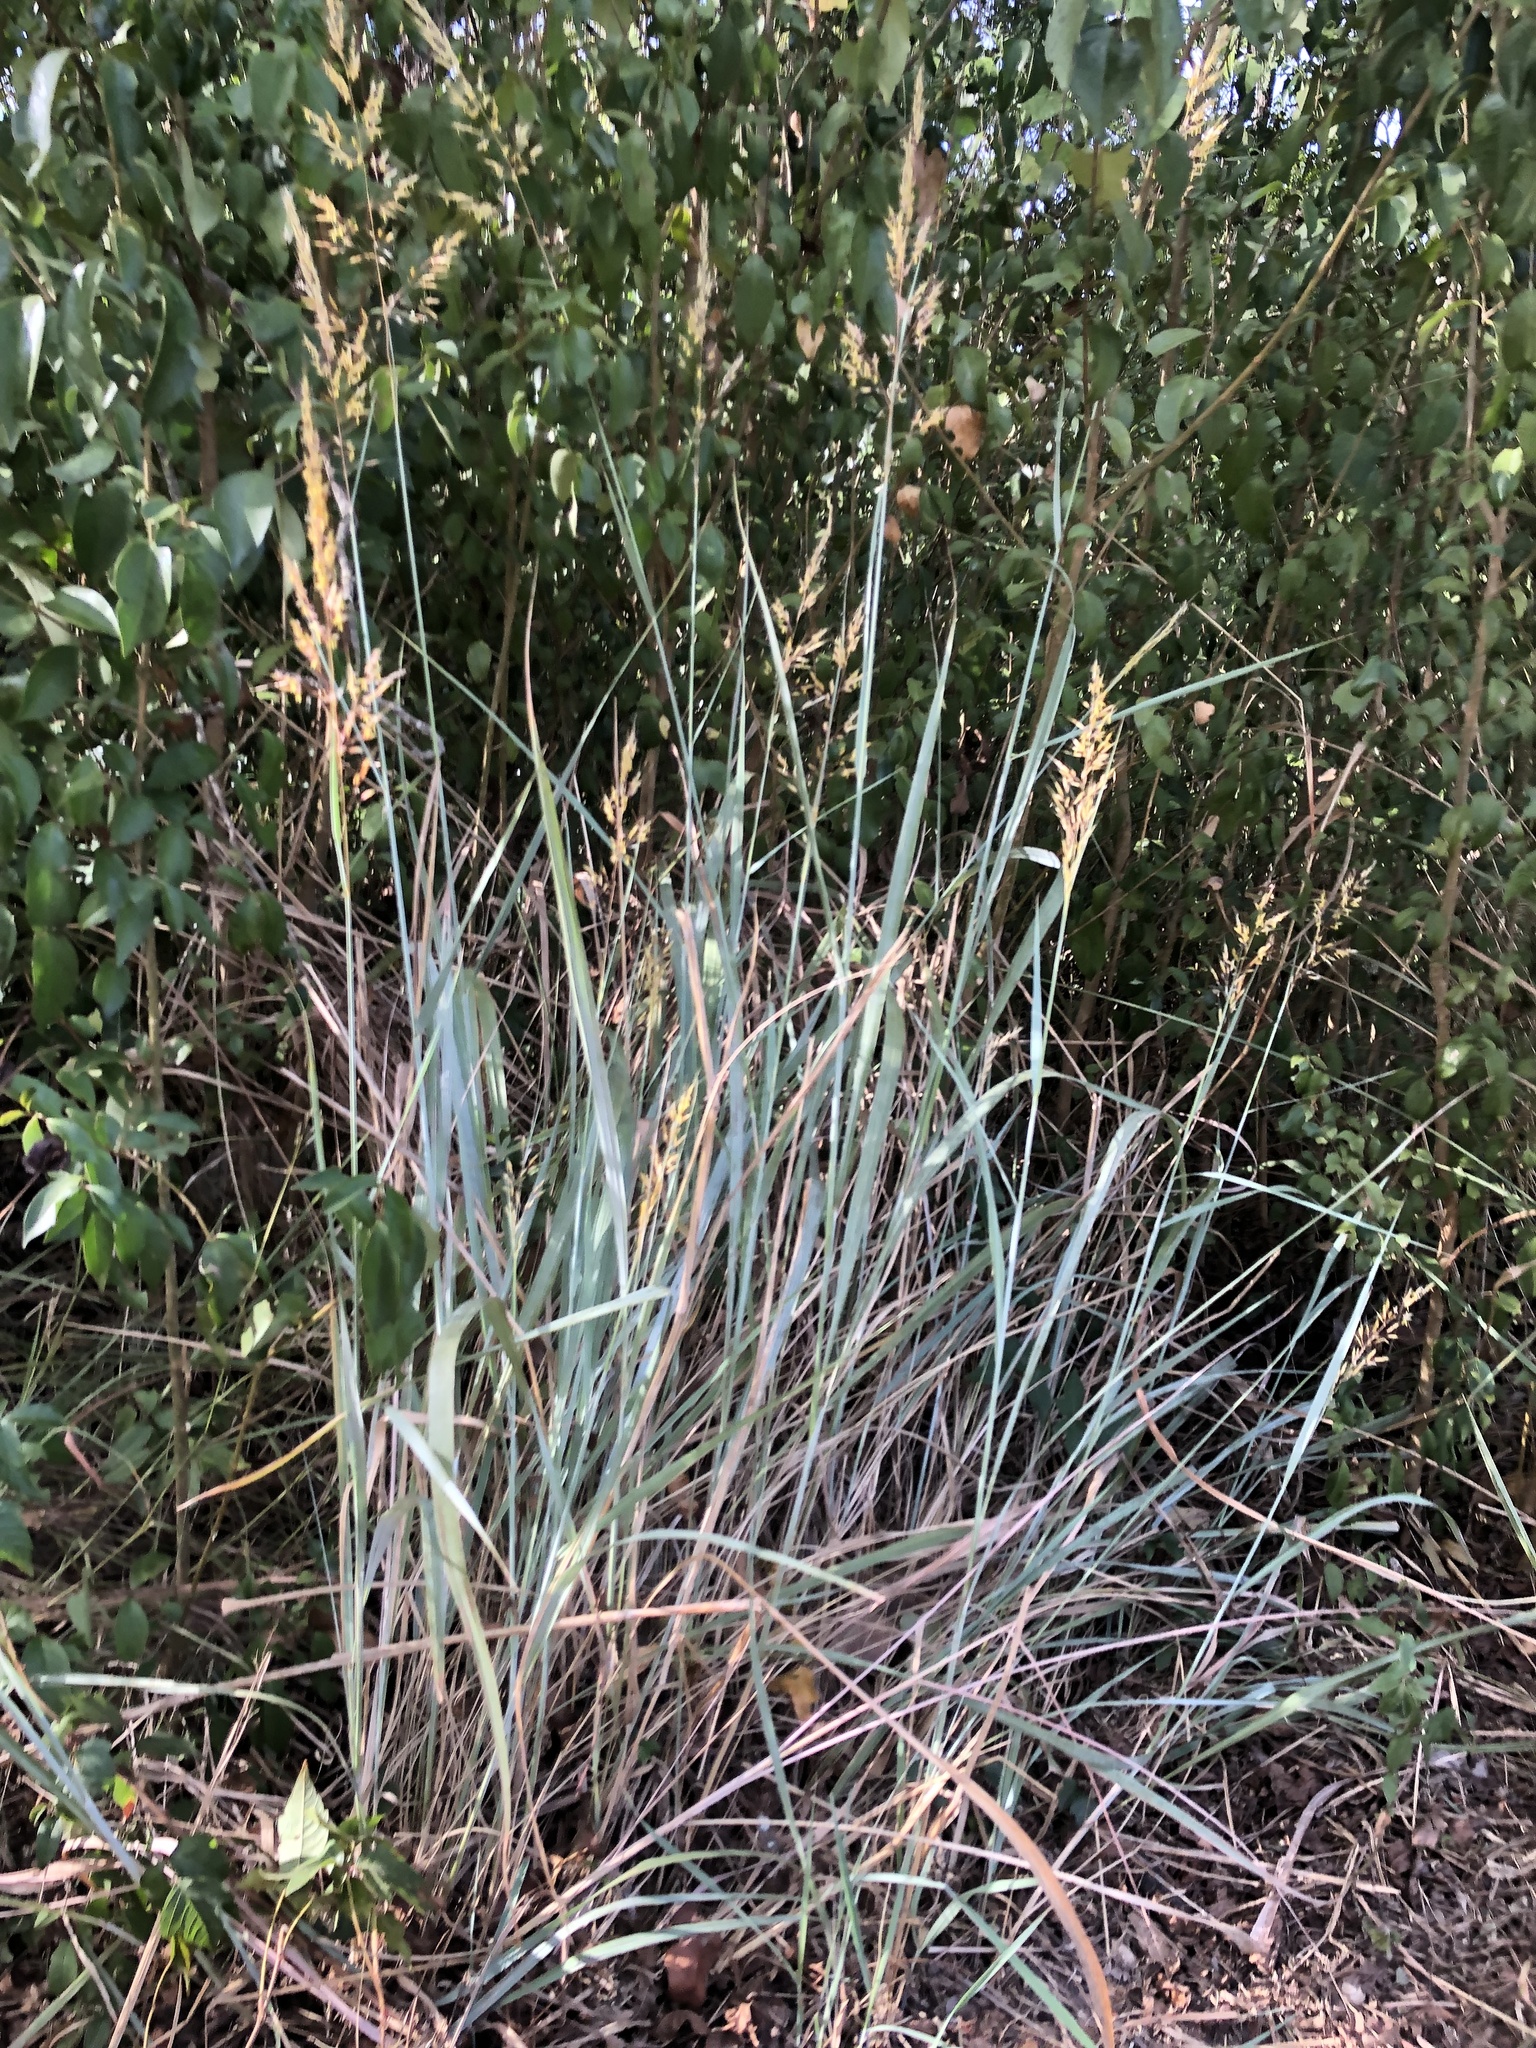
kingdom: Plantae
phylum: Tracheophyta
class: Liliopsida
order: Poales
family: Poaceae
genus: Sorghastrum
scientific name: Sorghastrum nutans
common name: Indian grass
